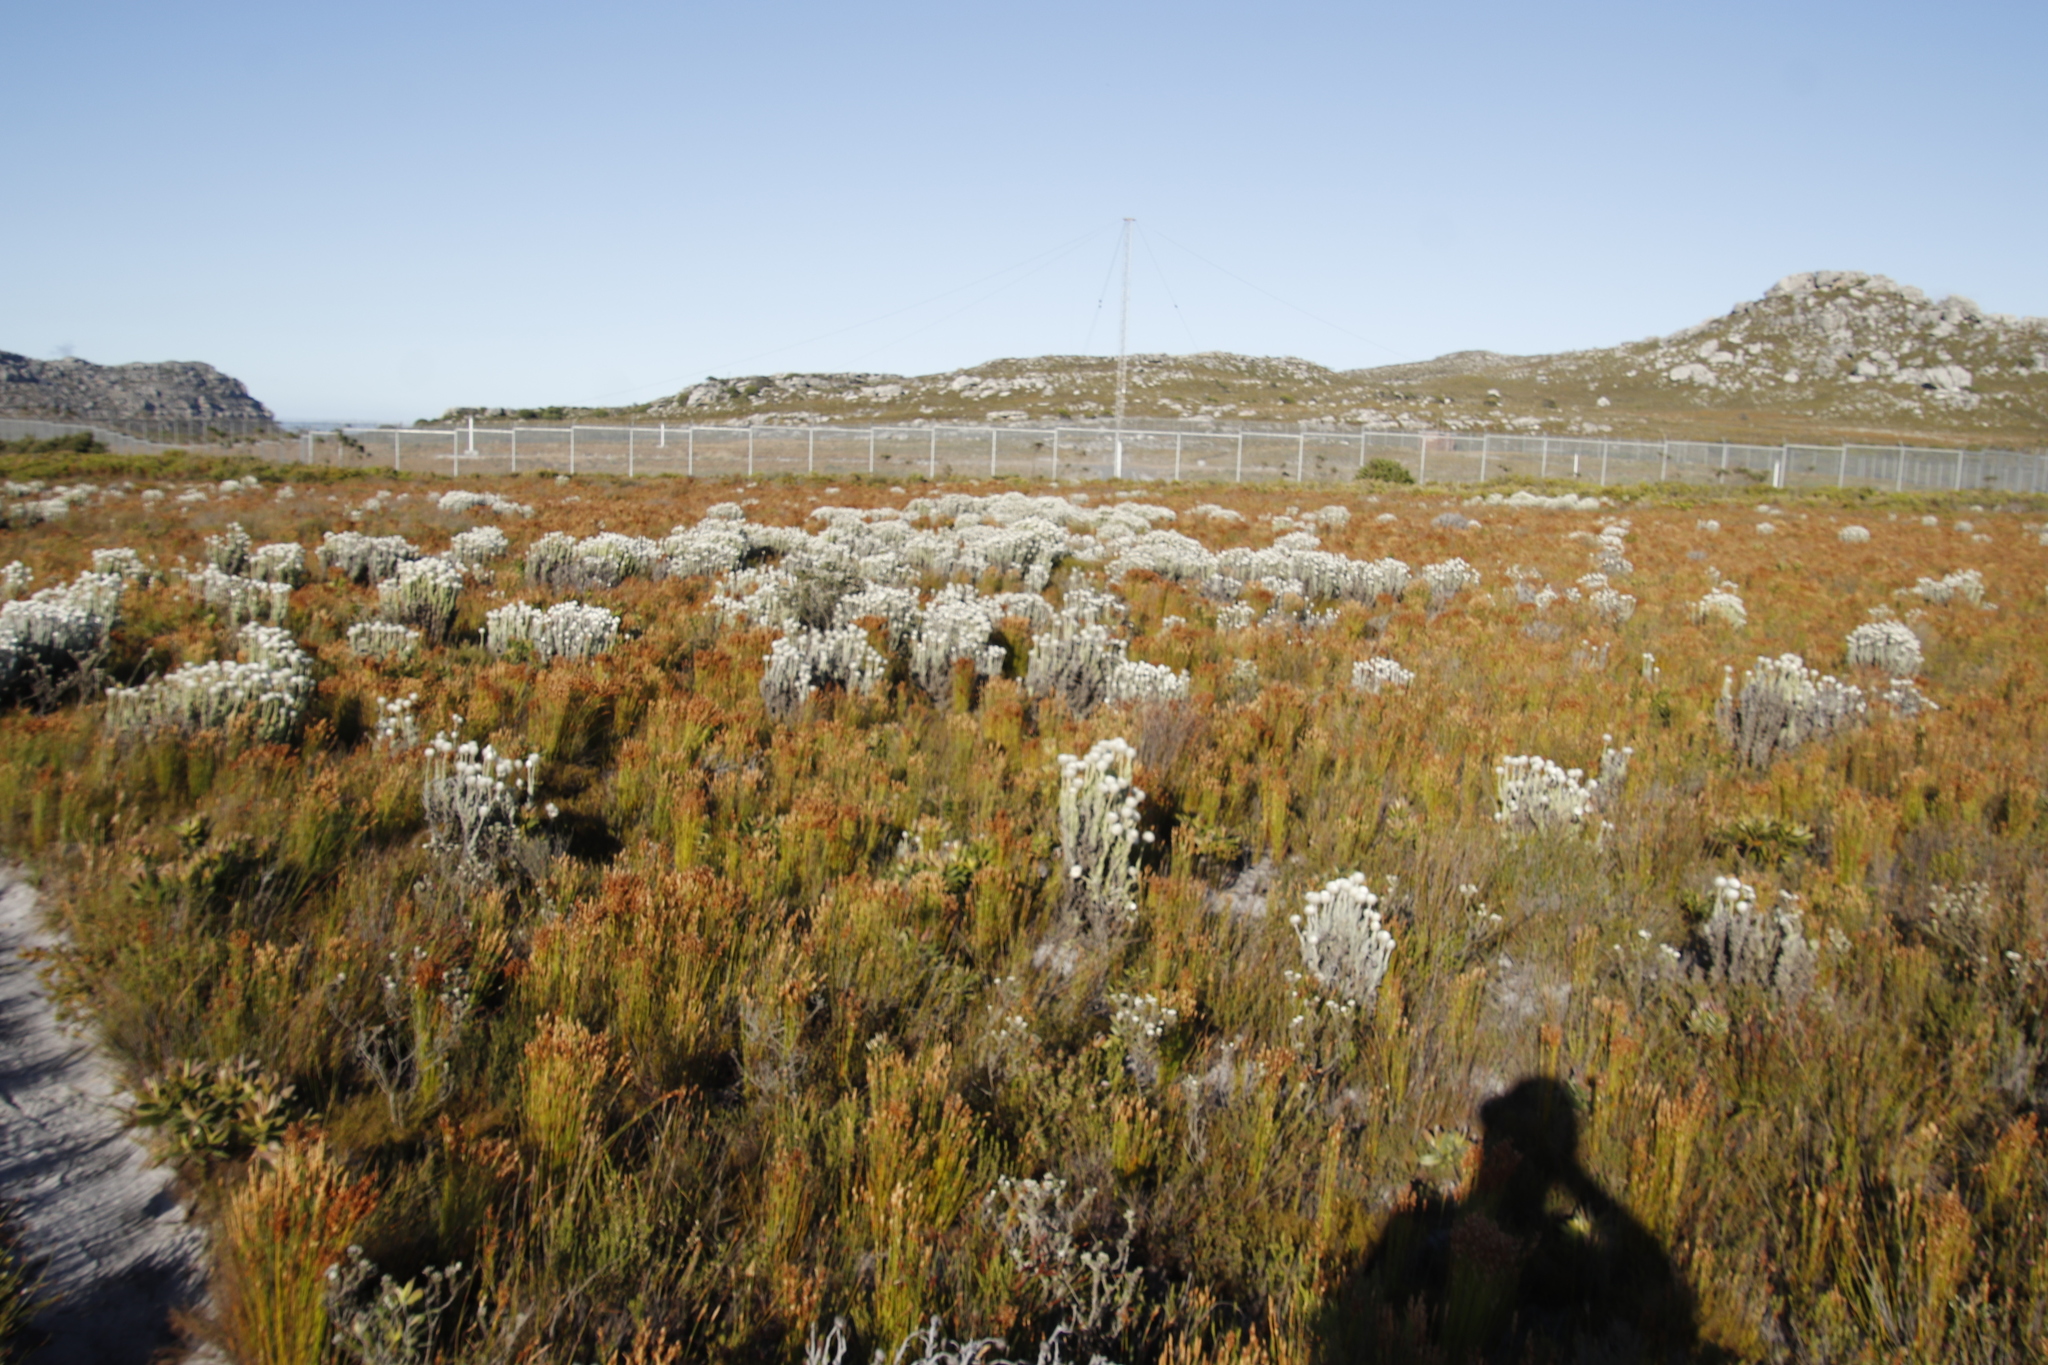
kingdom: Plantae
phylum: Tracheophyta
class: Magnoliopsida
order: Asterales
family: Asteraceae
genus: Syncarpha
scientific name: Syncarpha vestita
